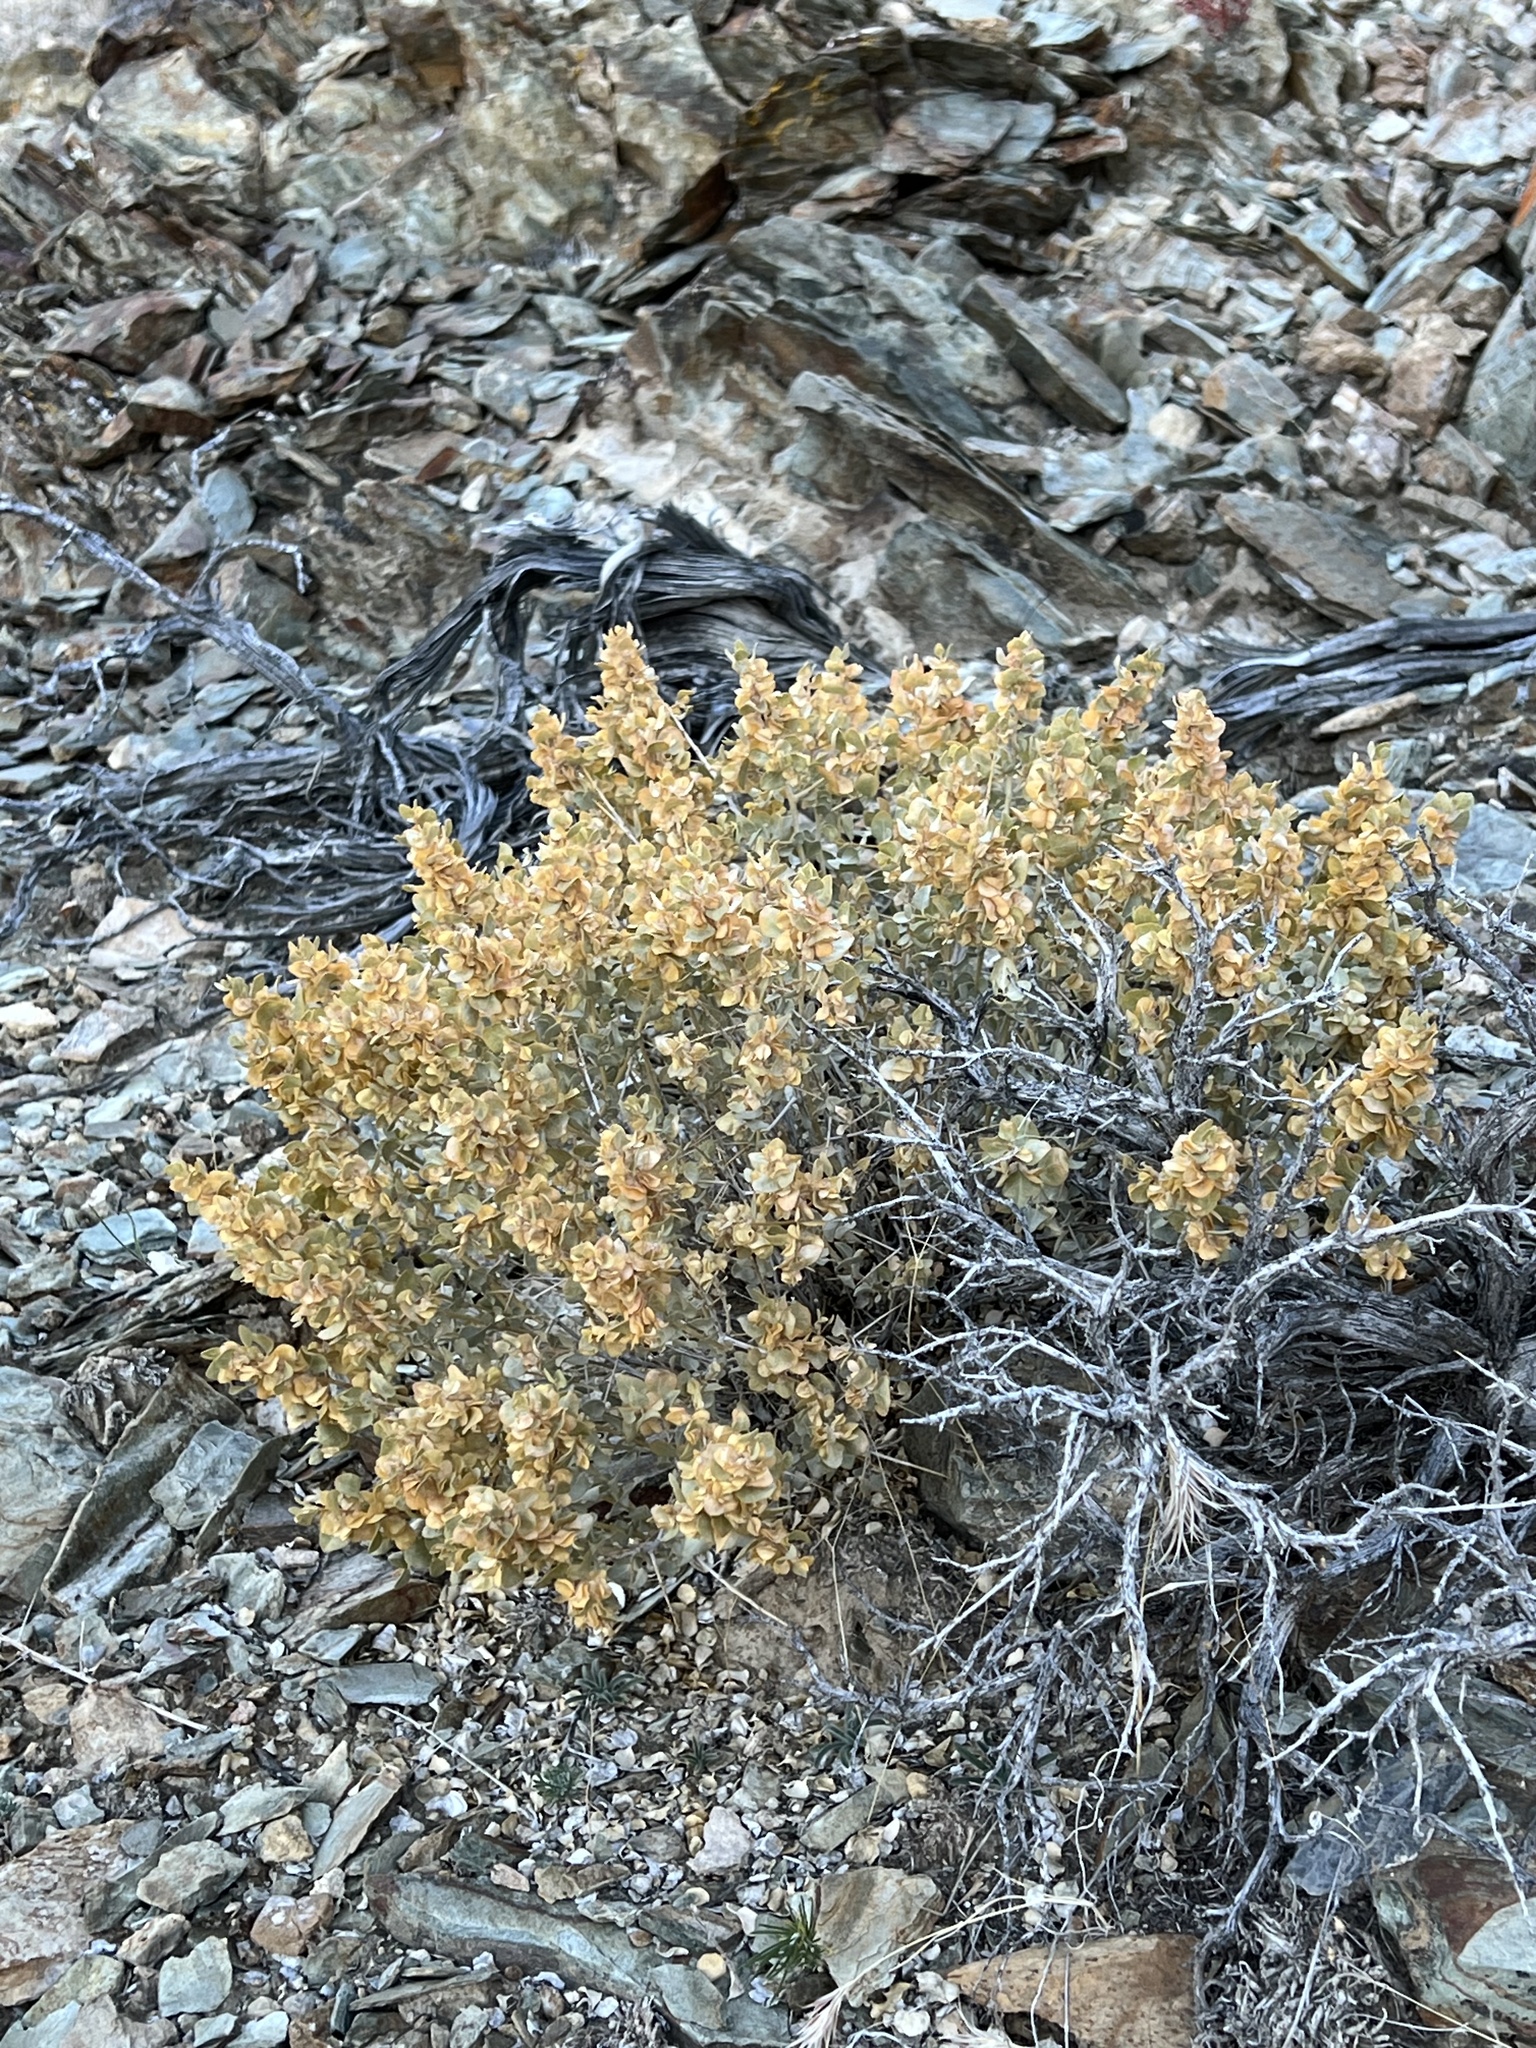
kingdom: Plantae
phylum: Tracheophyta
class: Magnoliopsida
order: Caryophyllales
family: Amaranthaceae
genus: Atriplex
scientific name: Atriplex confertifolia
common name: Shadscale
